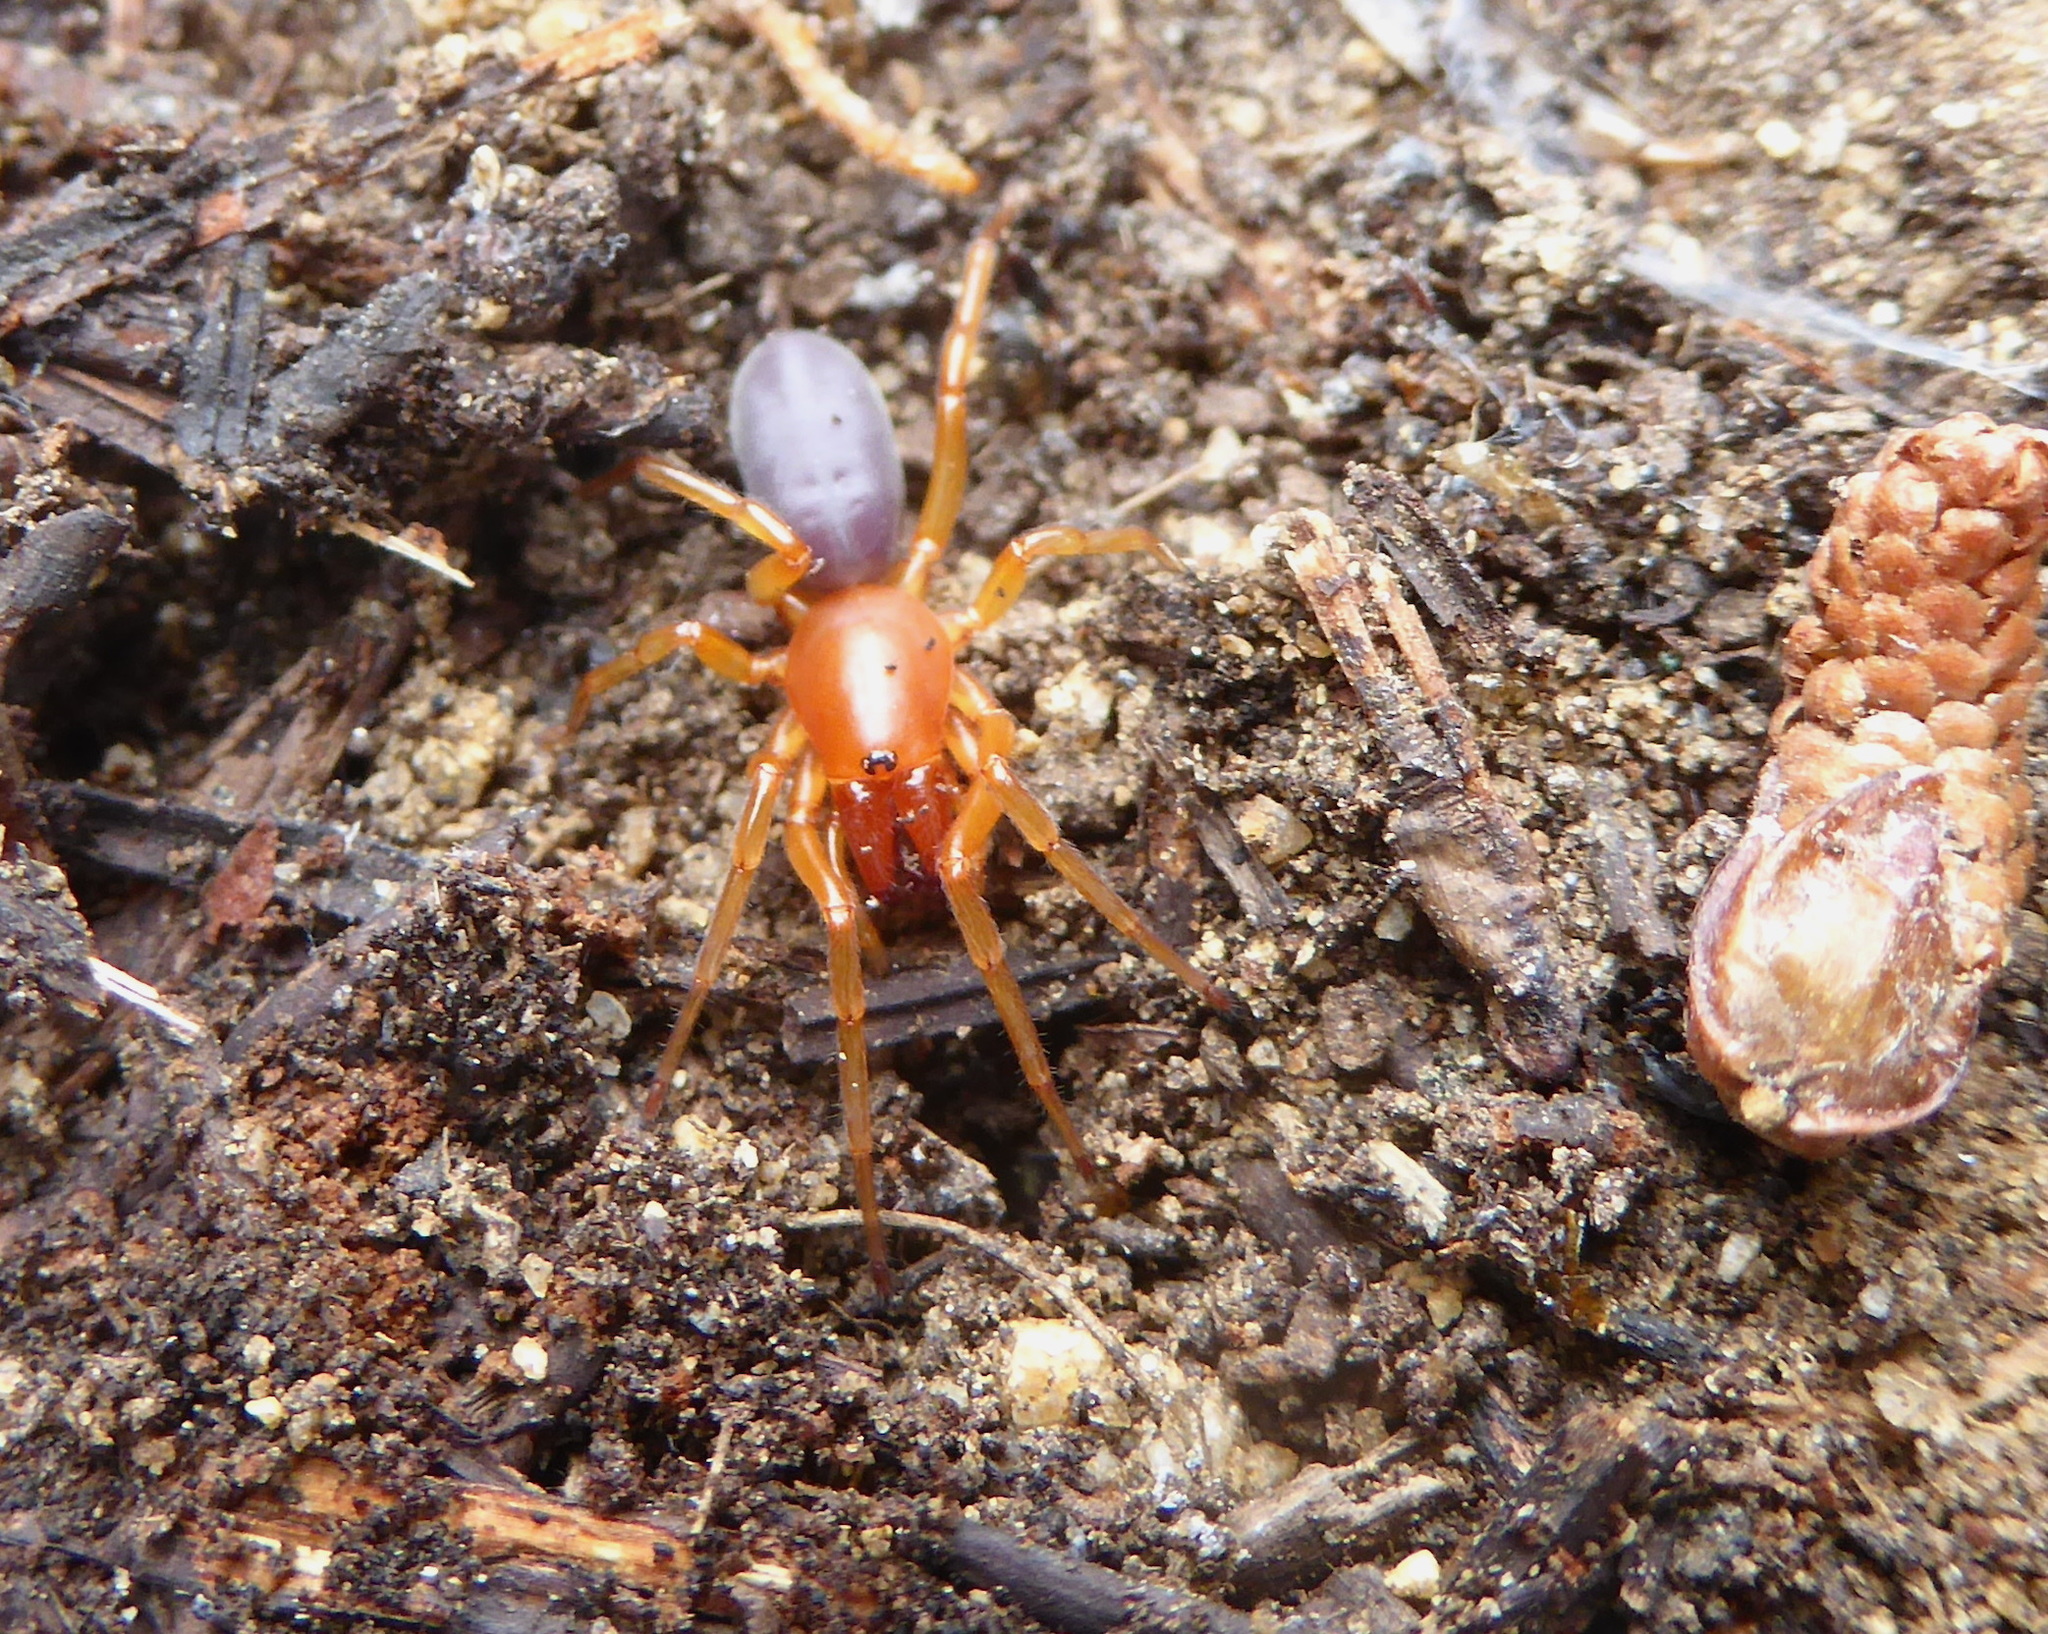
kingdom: Animalia
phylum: Arthropoda
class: Arachnida
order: Araneae
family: Dysderidae
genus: Dysdera
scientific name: Dysdera crocata
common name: Woodlouse spider
